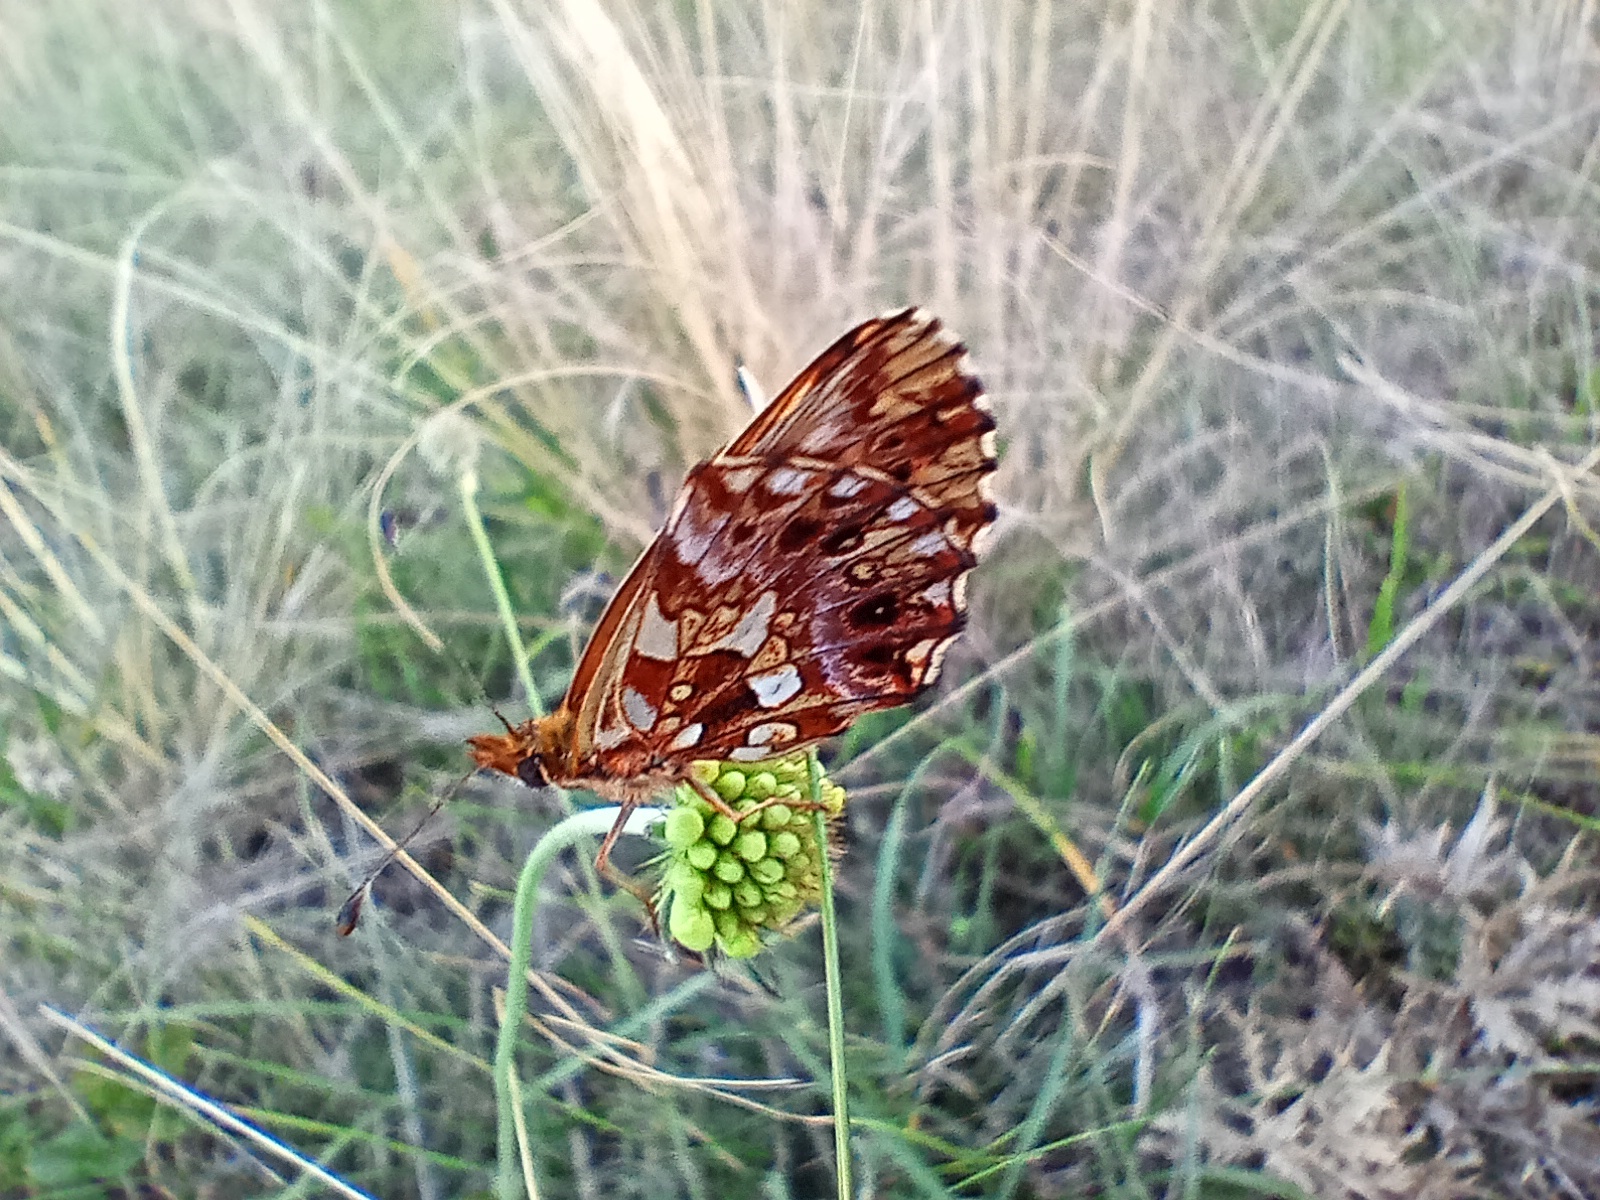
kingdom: Animalia
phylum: Arthropoda
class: Insecta
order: Lepidoptera
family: Nymphalidae
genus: Boloria
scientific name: Boloria dia
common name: Weaver's fritillary
